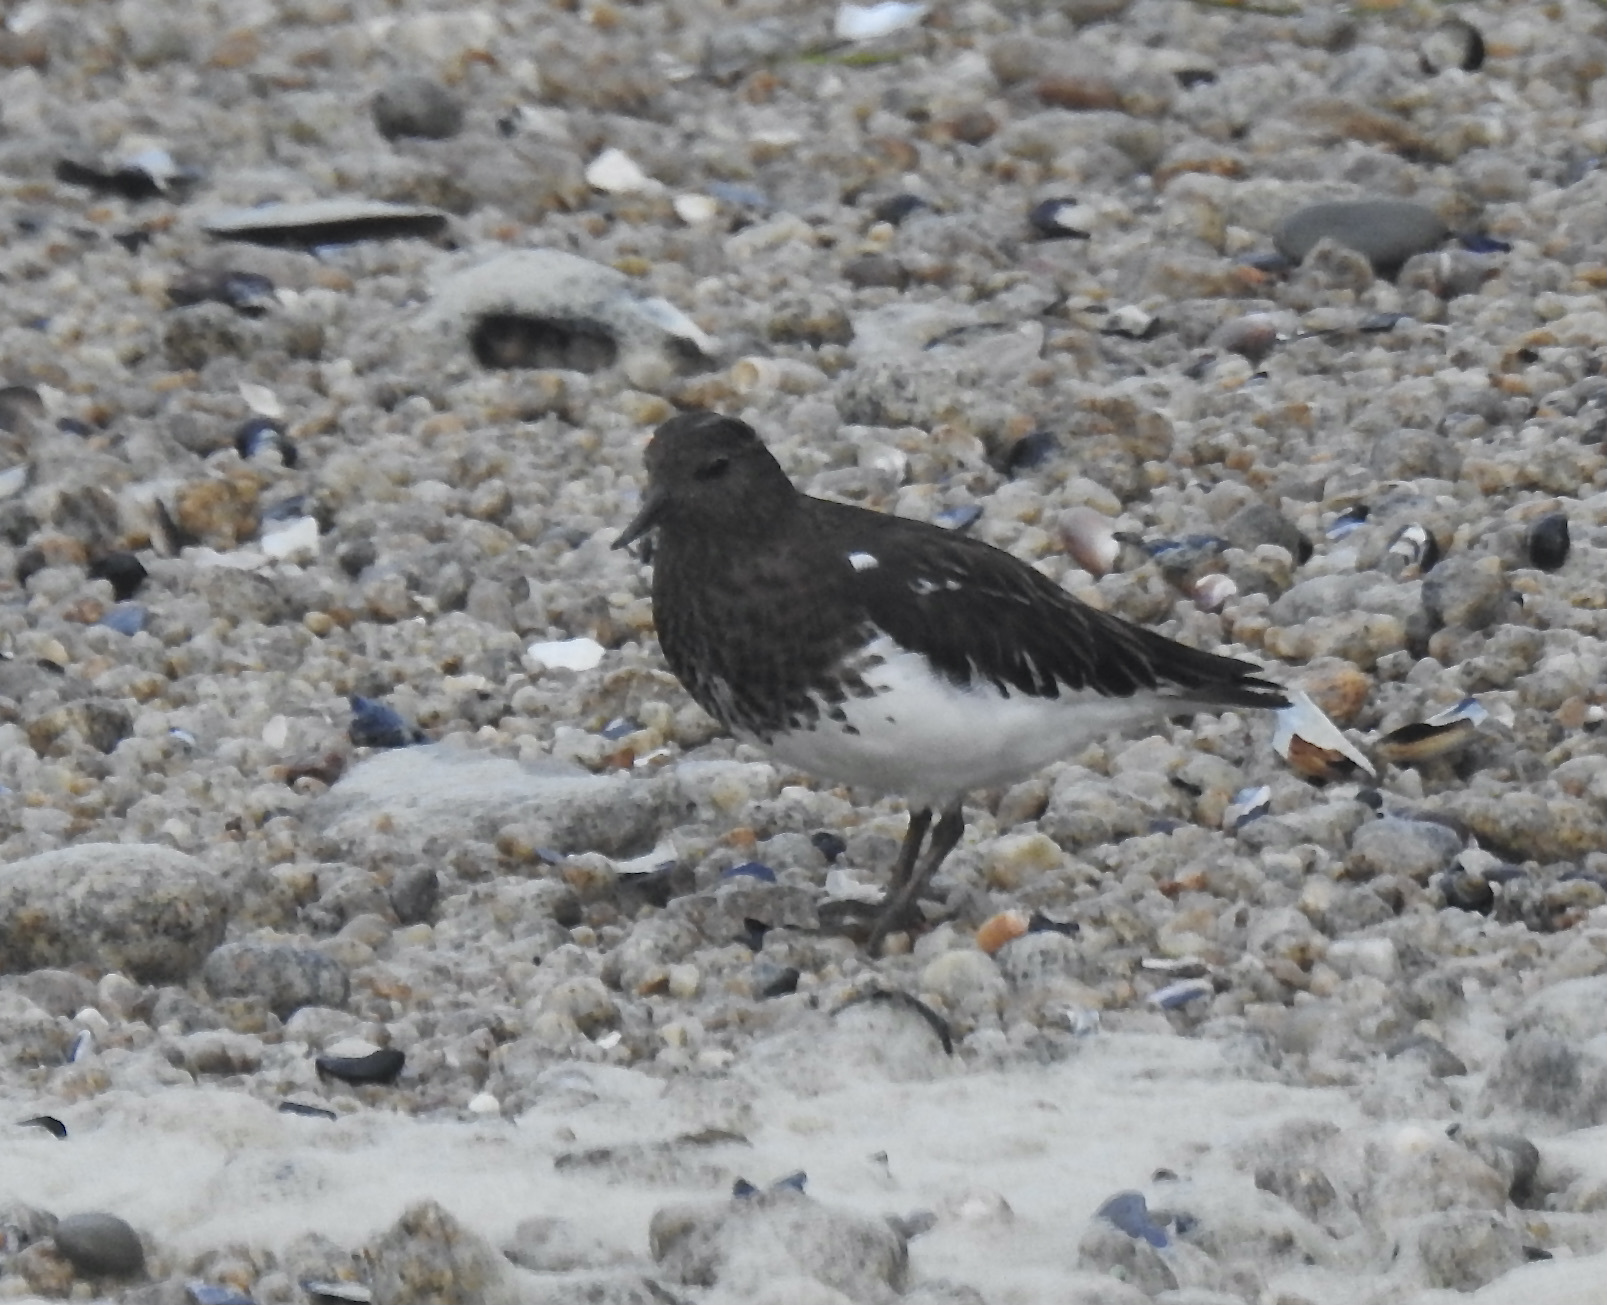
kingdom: Animalia
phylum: Chordata
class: Aves
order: Charadriiformes
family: Scolopacidae
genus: Arenaria
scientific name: Arenaria melanocephala
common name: Black turnstone
